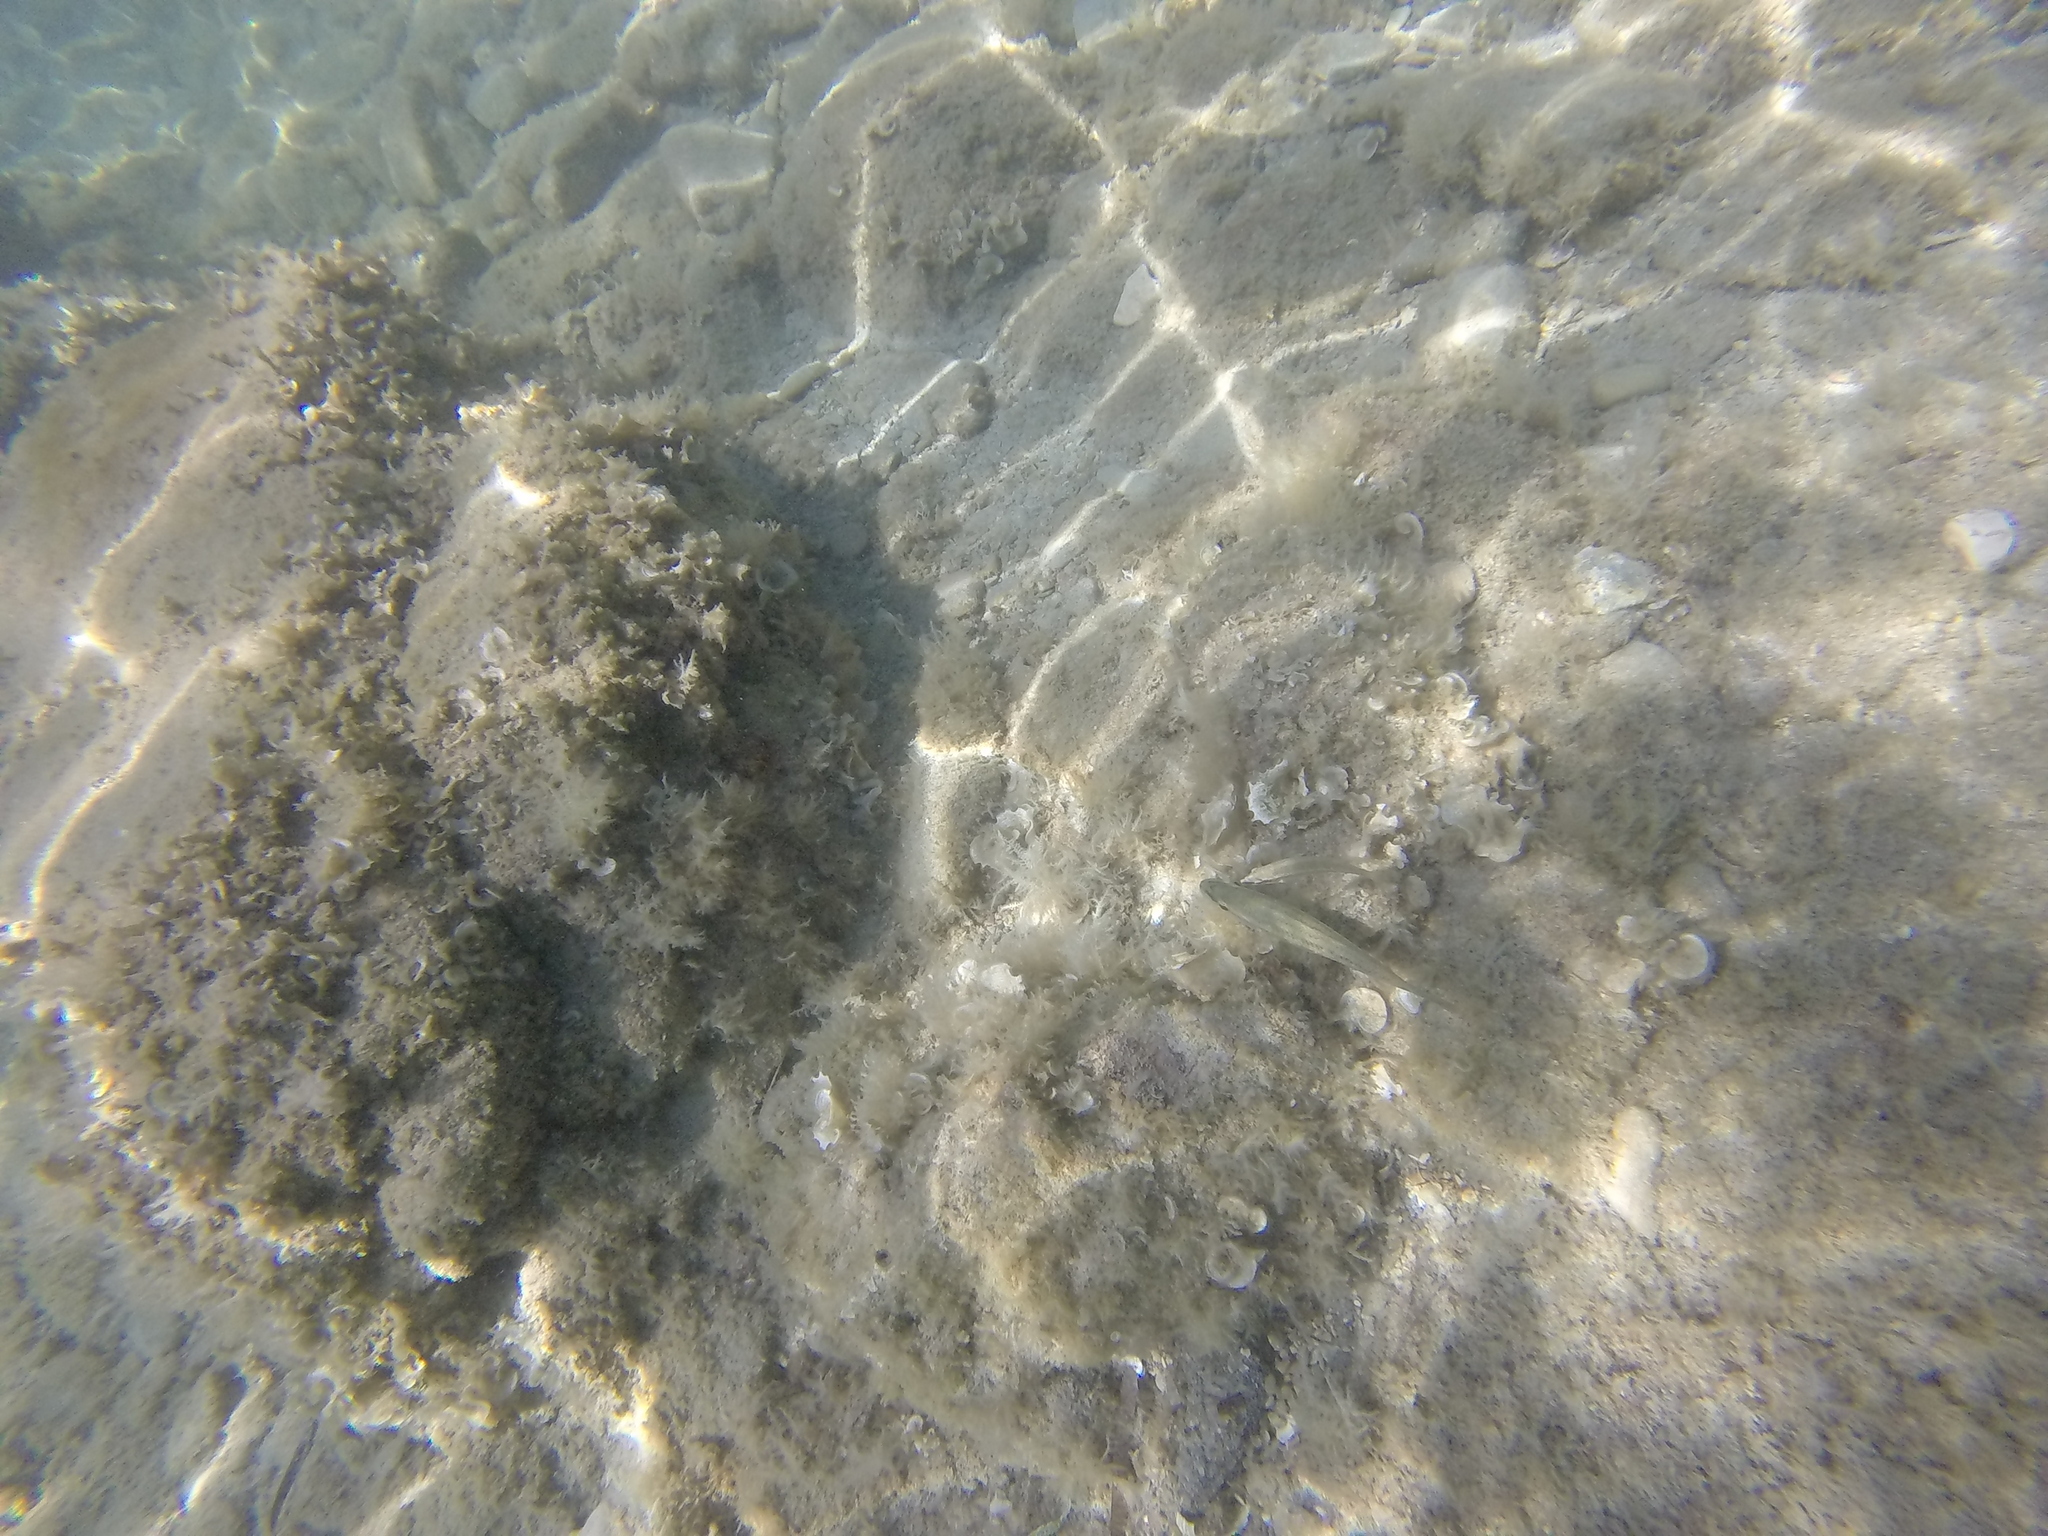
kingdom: Animalia
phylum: Chordata
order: Perciformes
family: Labridae
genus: Symphodus
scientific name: Symphodus tinca
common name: Peacock wrasse
